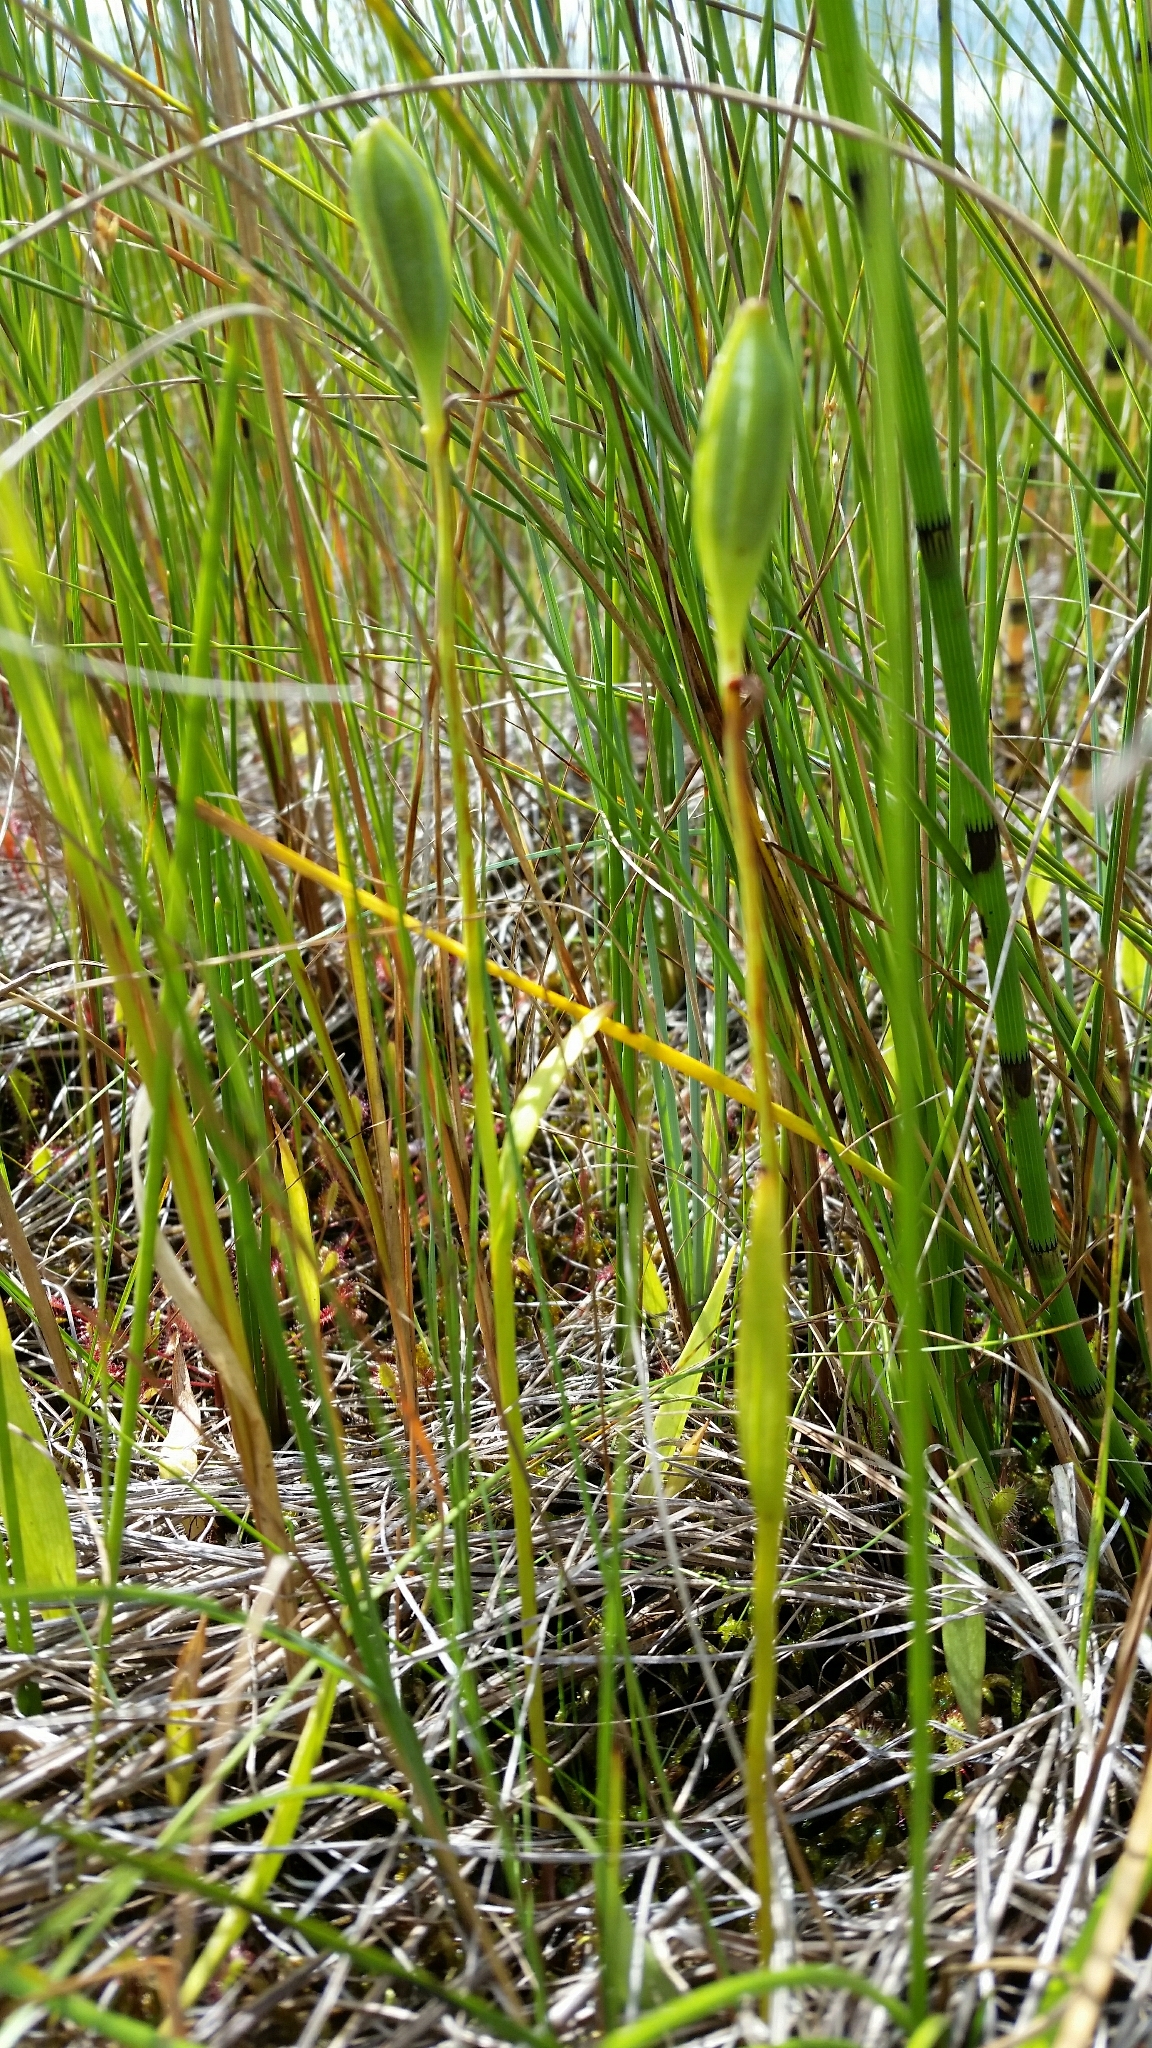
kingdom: Plantae
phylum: Tracheophyta
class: Liliopsida
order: Asparagales
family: Orchidaceae
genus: Pogonia
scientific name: Pogonia ophioglossoides
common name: Rose pogonia
